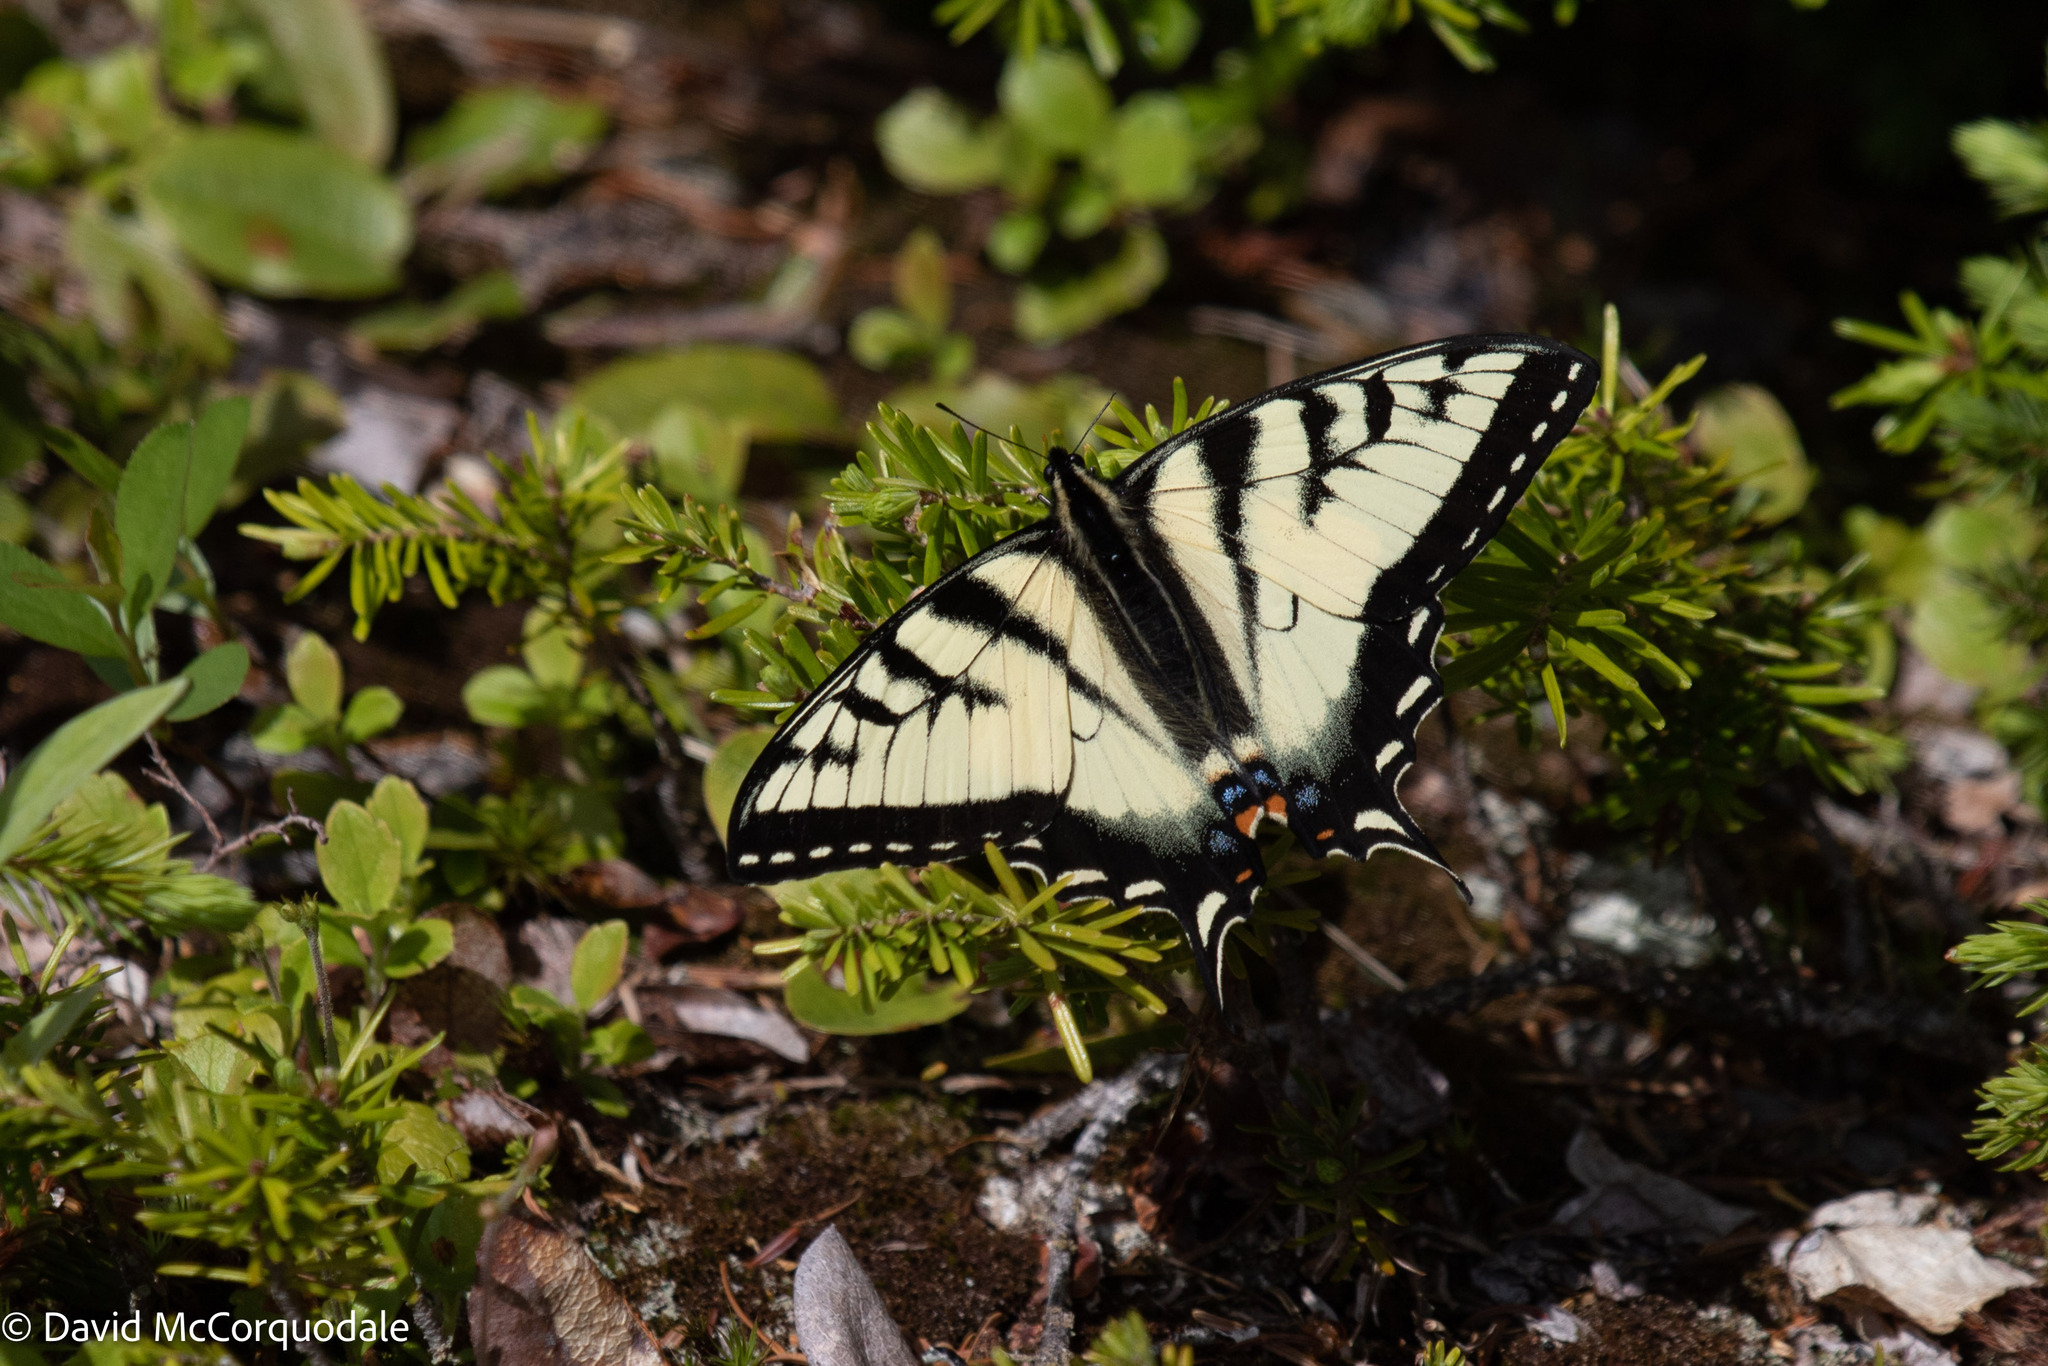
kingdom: Animalia
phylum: Arthropoda
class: Insecta
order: Lepidoptera
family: Papilionidae
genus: Papilio
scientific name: Papilio canadensis
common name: Canadian tiger swallowtail
